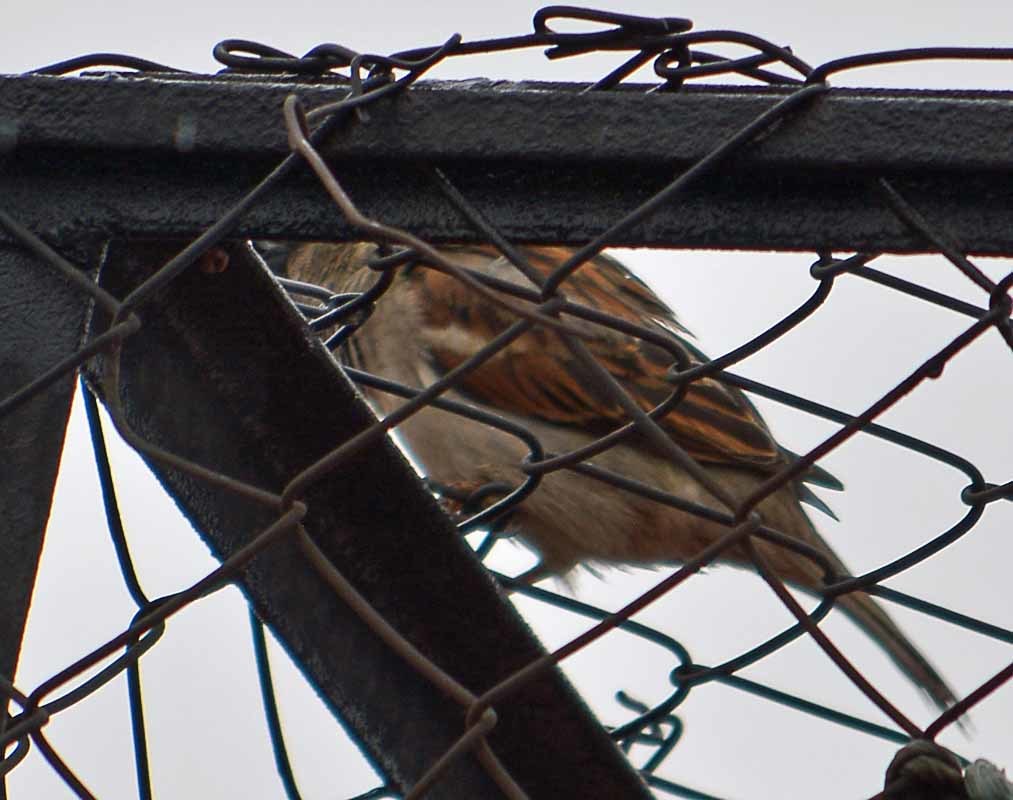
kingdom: Animalia
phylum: Chordata
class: Aves
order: Passeriformes
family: Passeridae
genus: Passer
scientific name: Passer domesticus
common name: House sparrow
